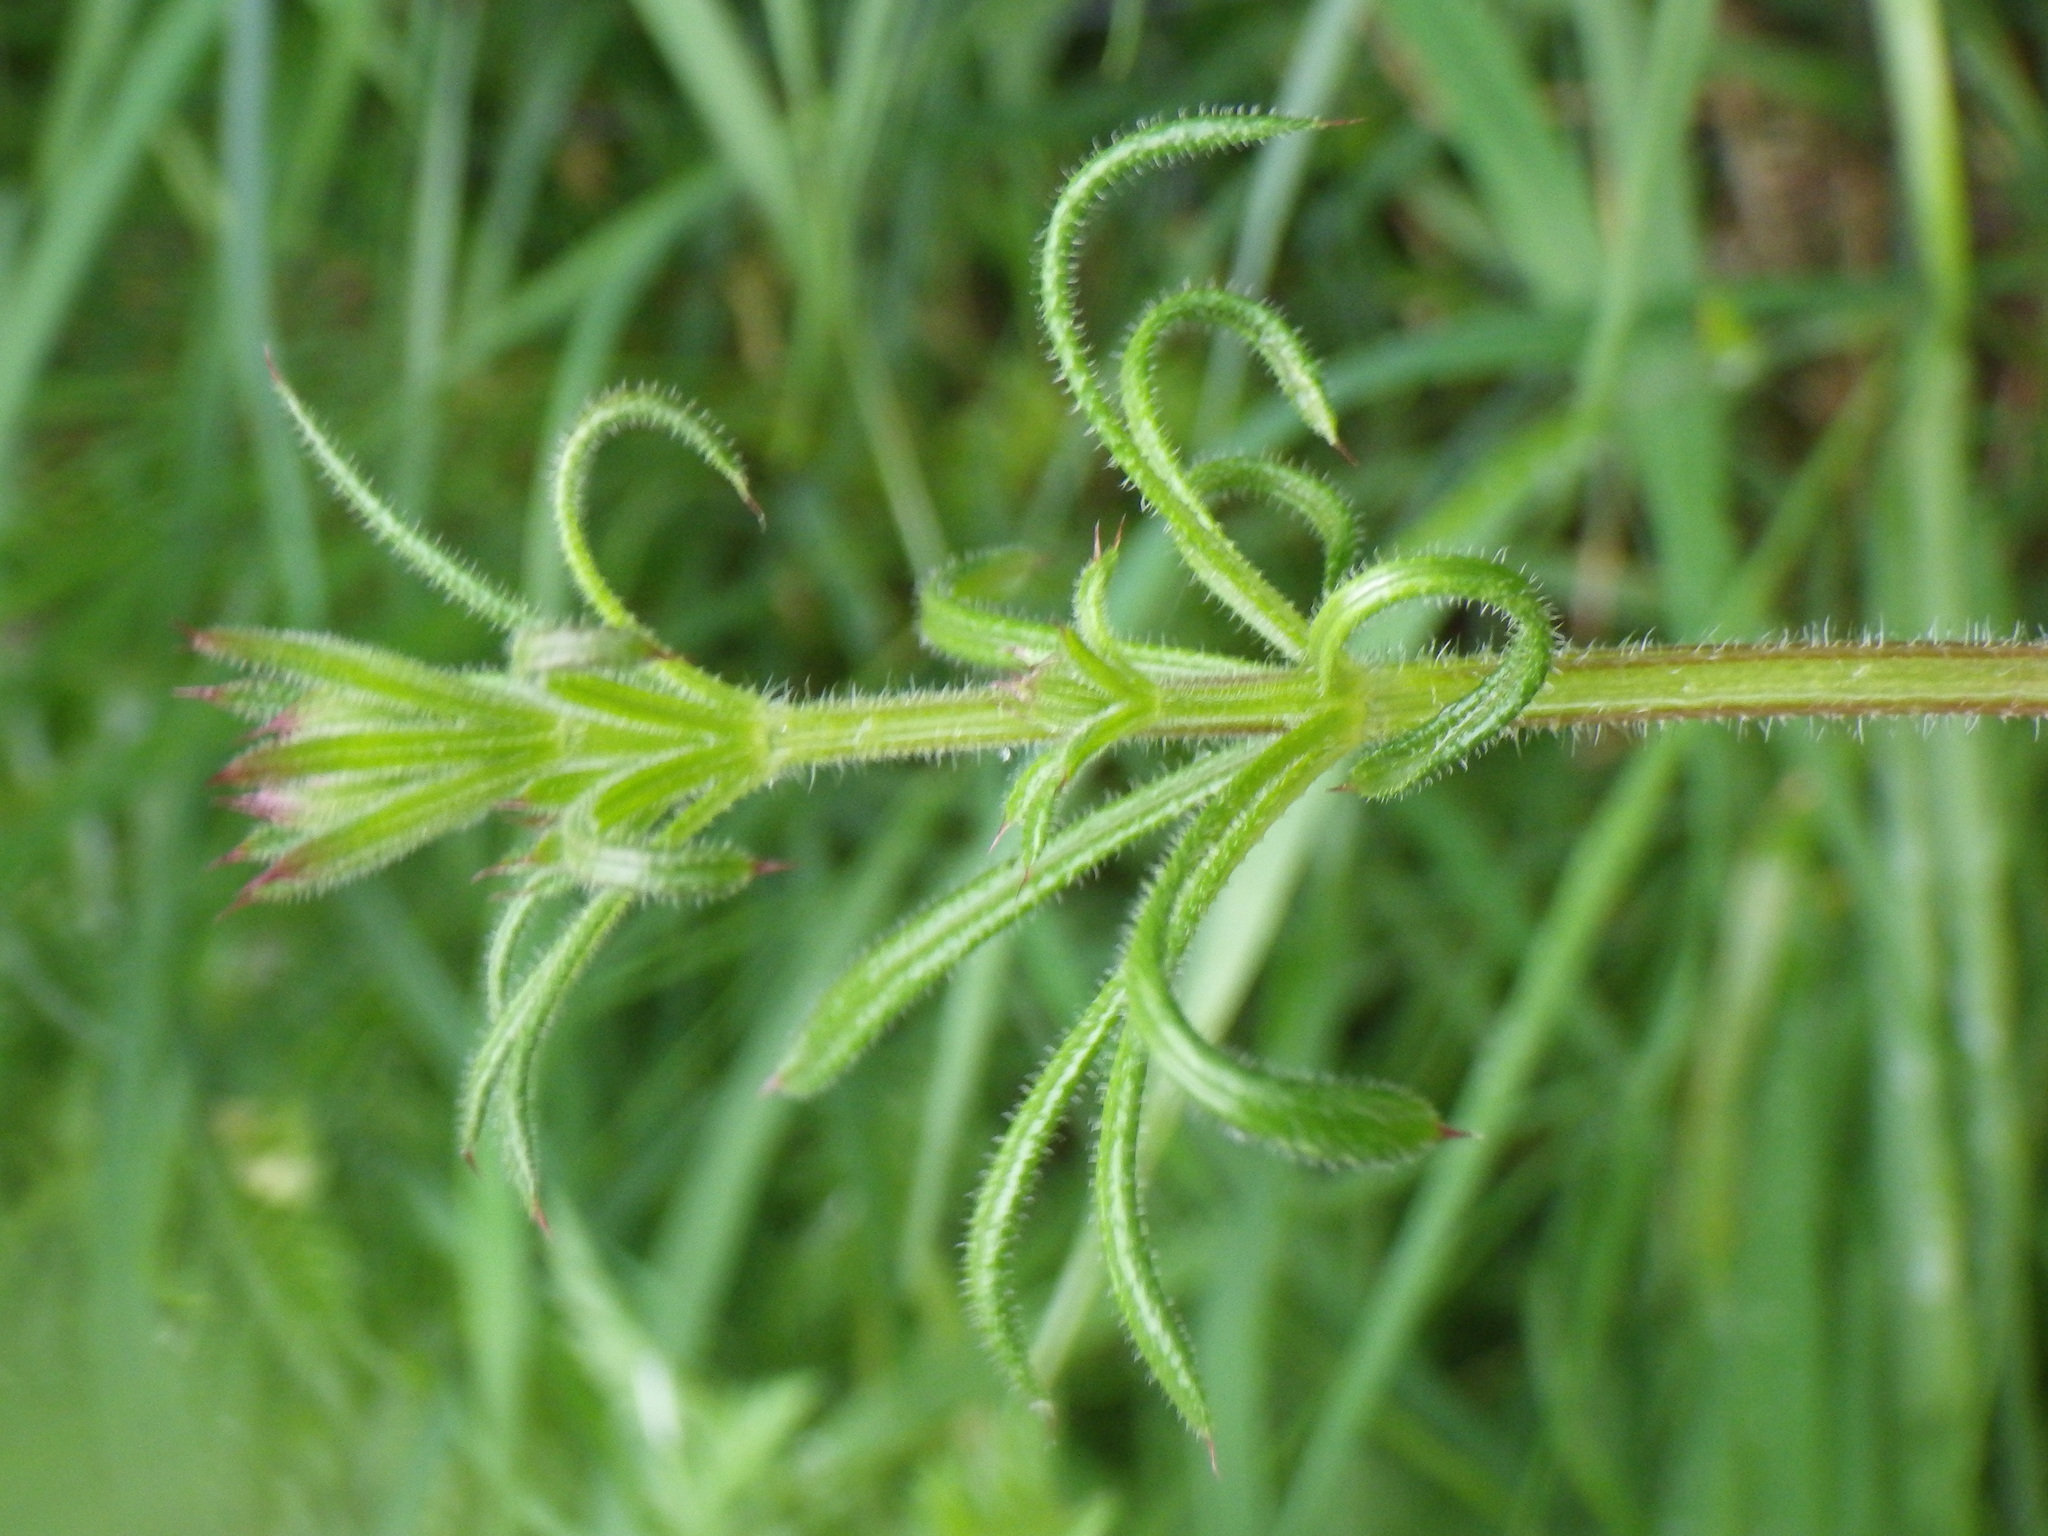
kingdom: Plantae
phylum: Tracheophyta
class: Magnoliopsida
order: Gentianales
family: Rubiaceae
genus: Galium
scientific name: Galium aparine
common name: Cleavers
